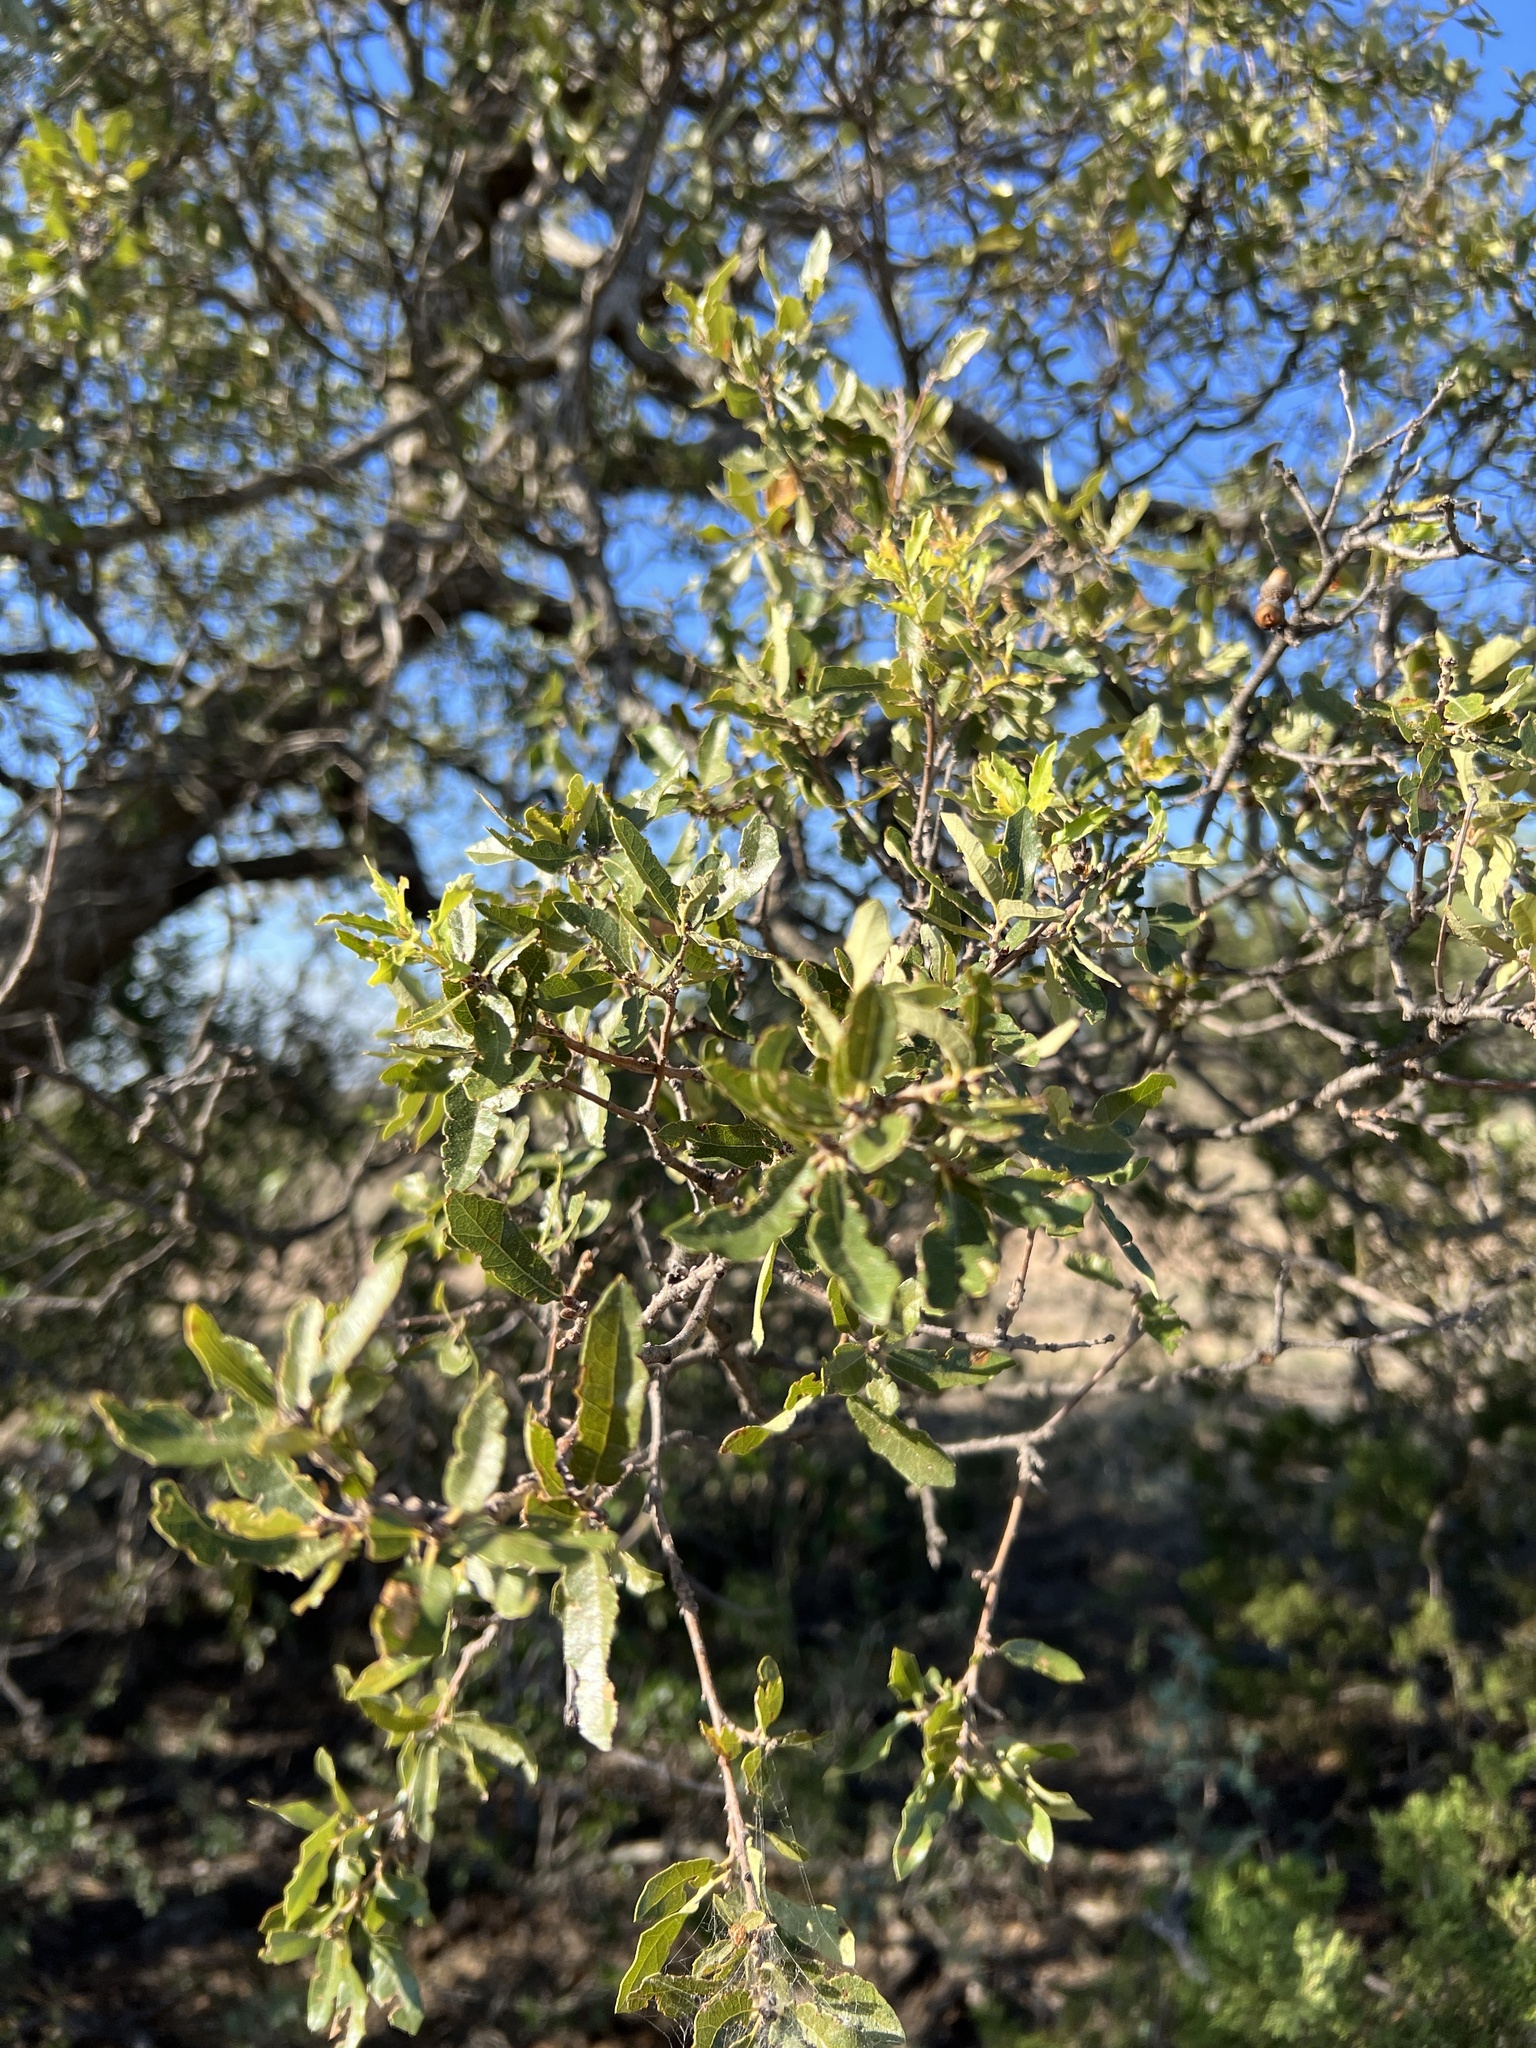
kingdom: Plantae
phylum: Tracheophyta
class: Magnoliopsida
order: Fagales
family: Fagaceae
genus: Quercus
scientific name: Quercus vaseyana
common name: Sandpaper oak
